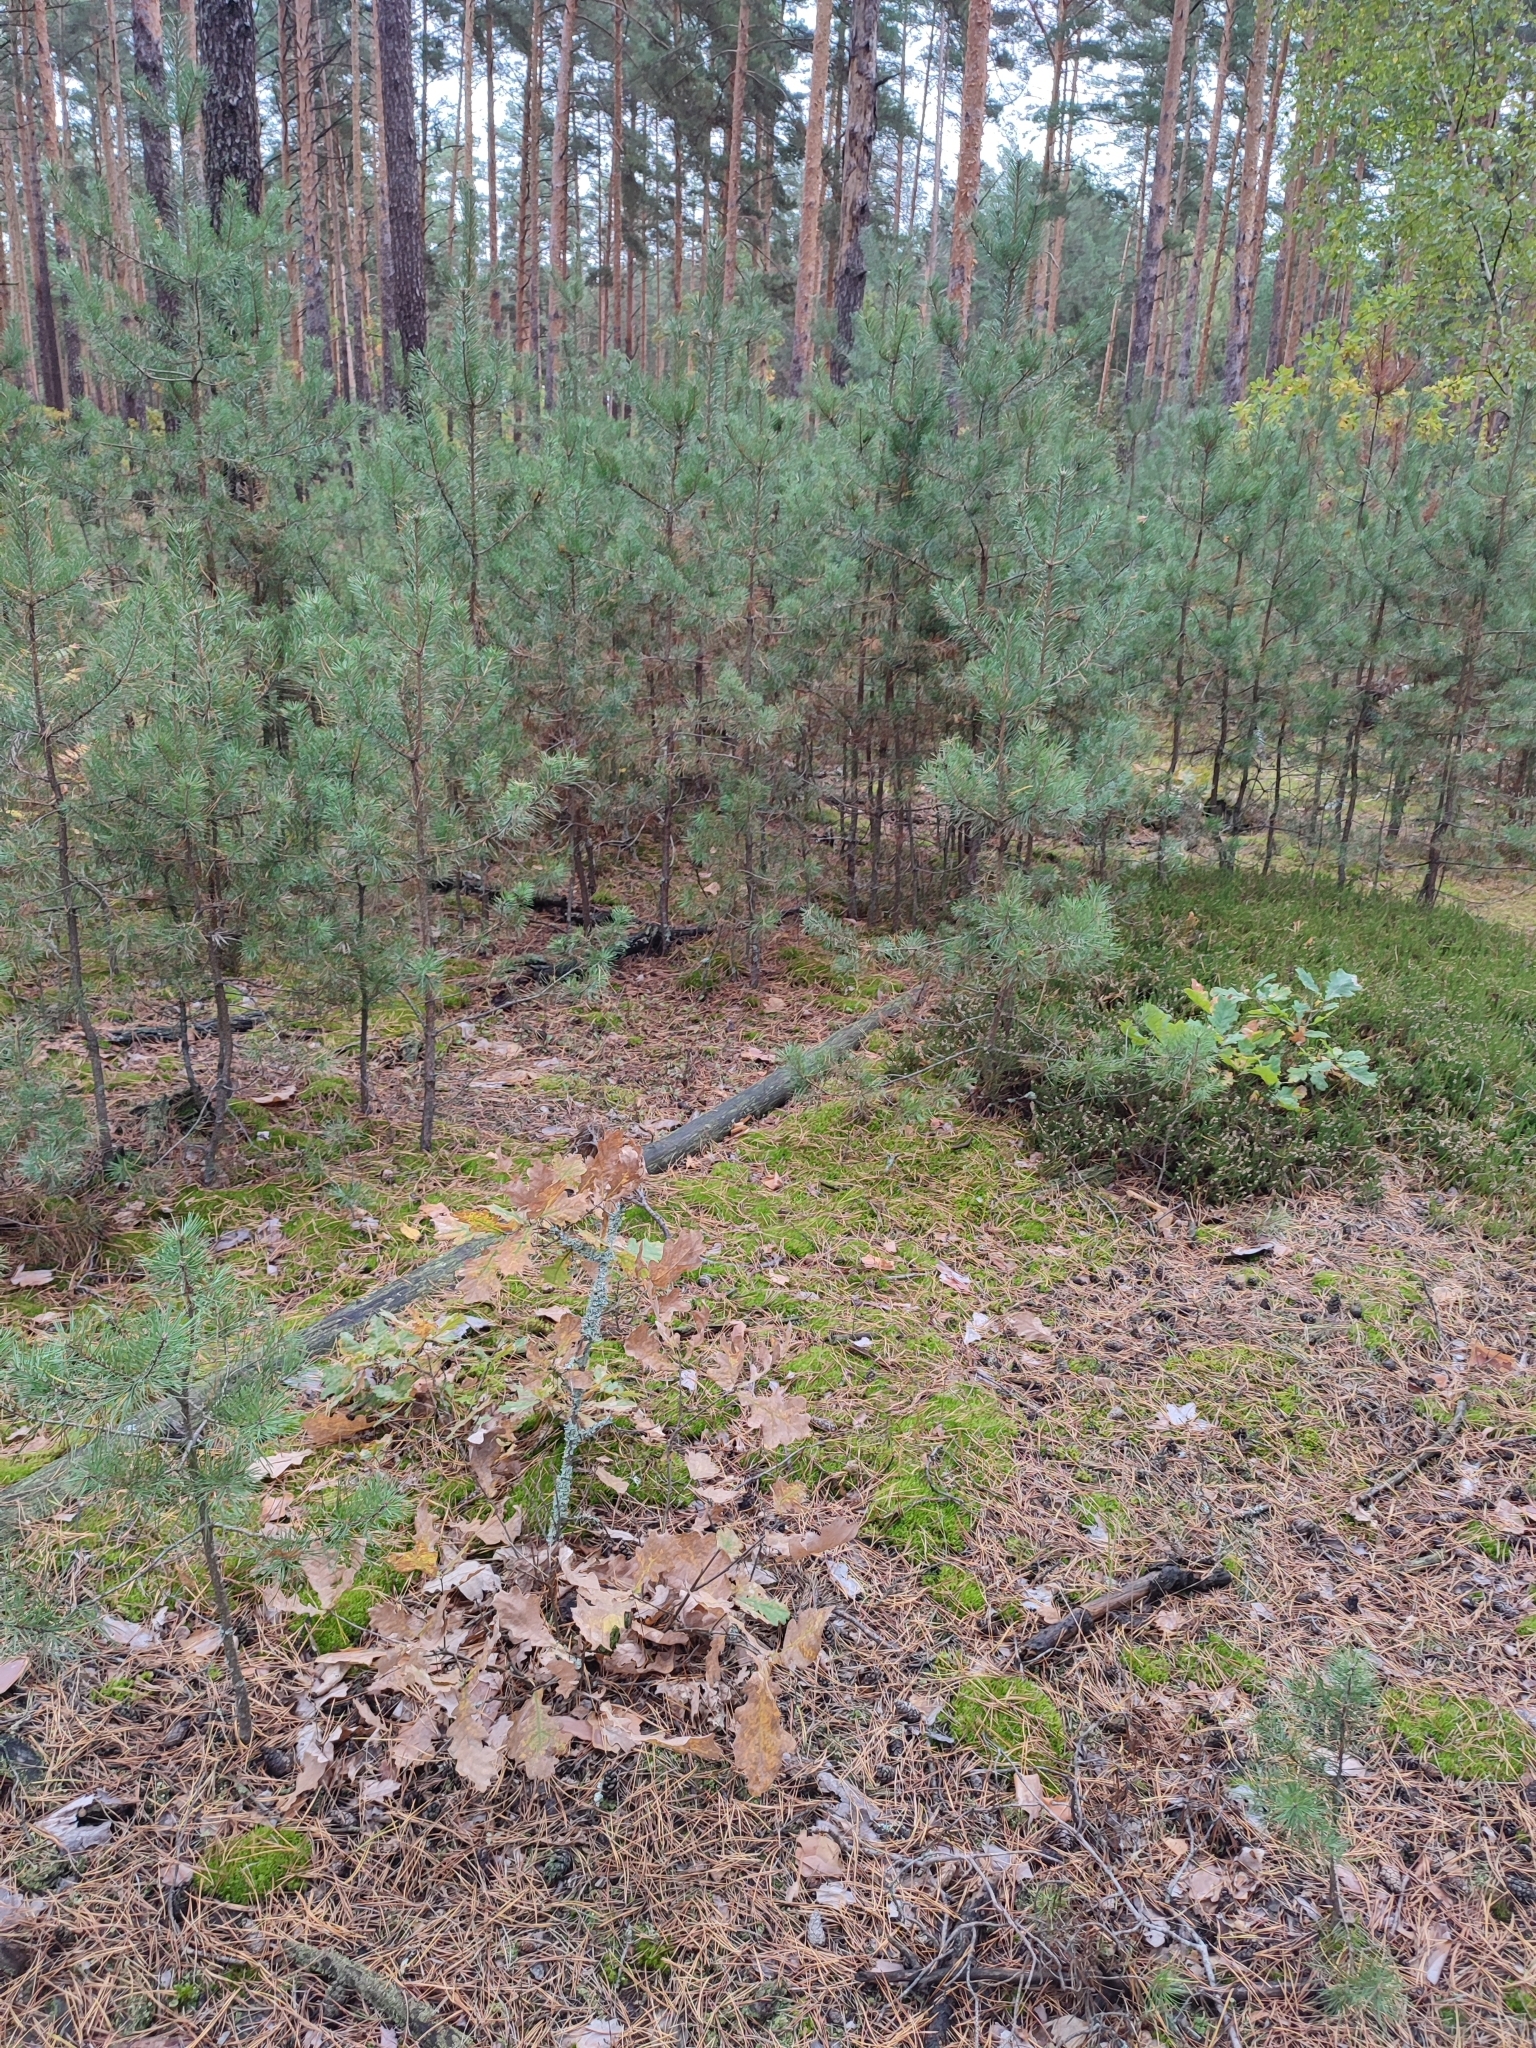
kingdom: Plantae
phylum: Tracheophyta
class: Magnoliopsida
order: Fagales
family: Fagaceae
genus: Quercus
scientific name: Quercus robur
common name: Pedunculate oak
